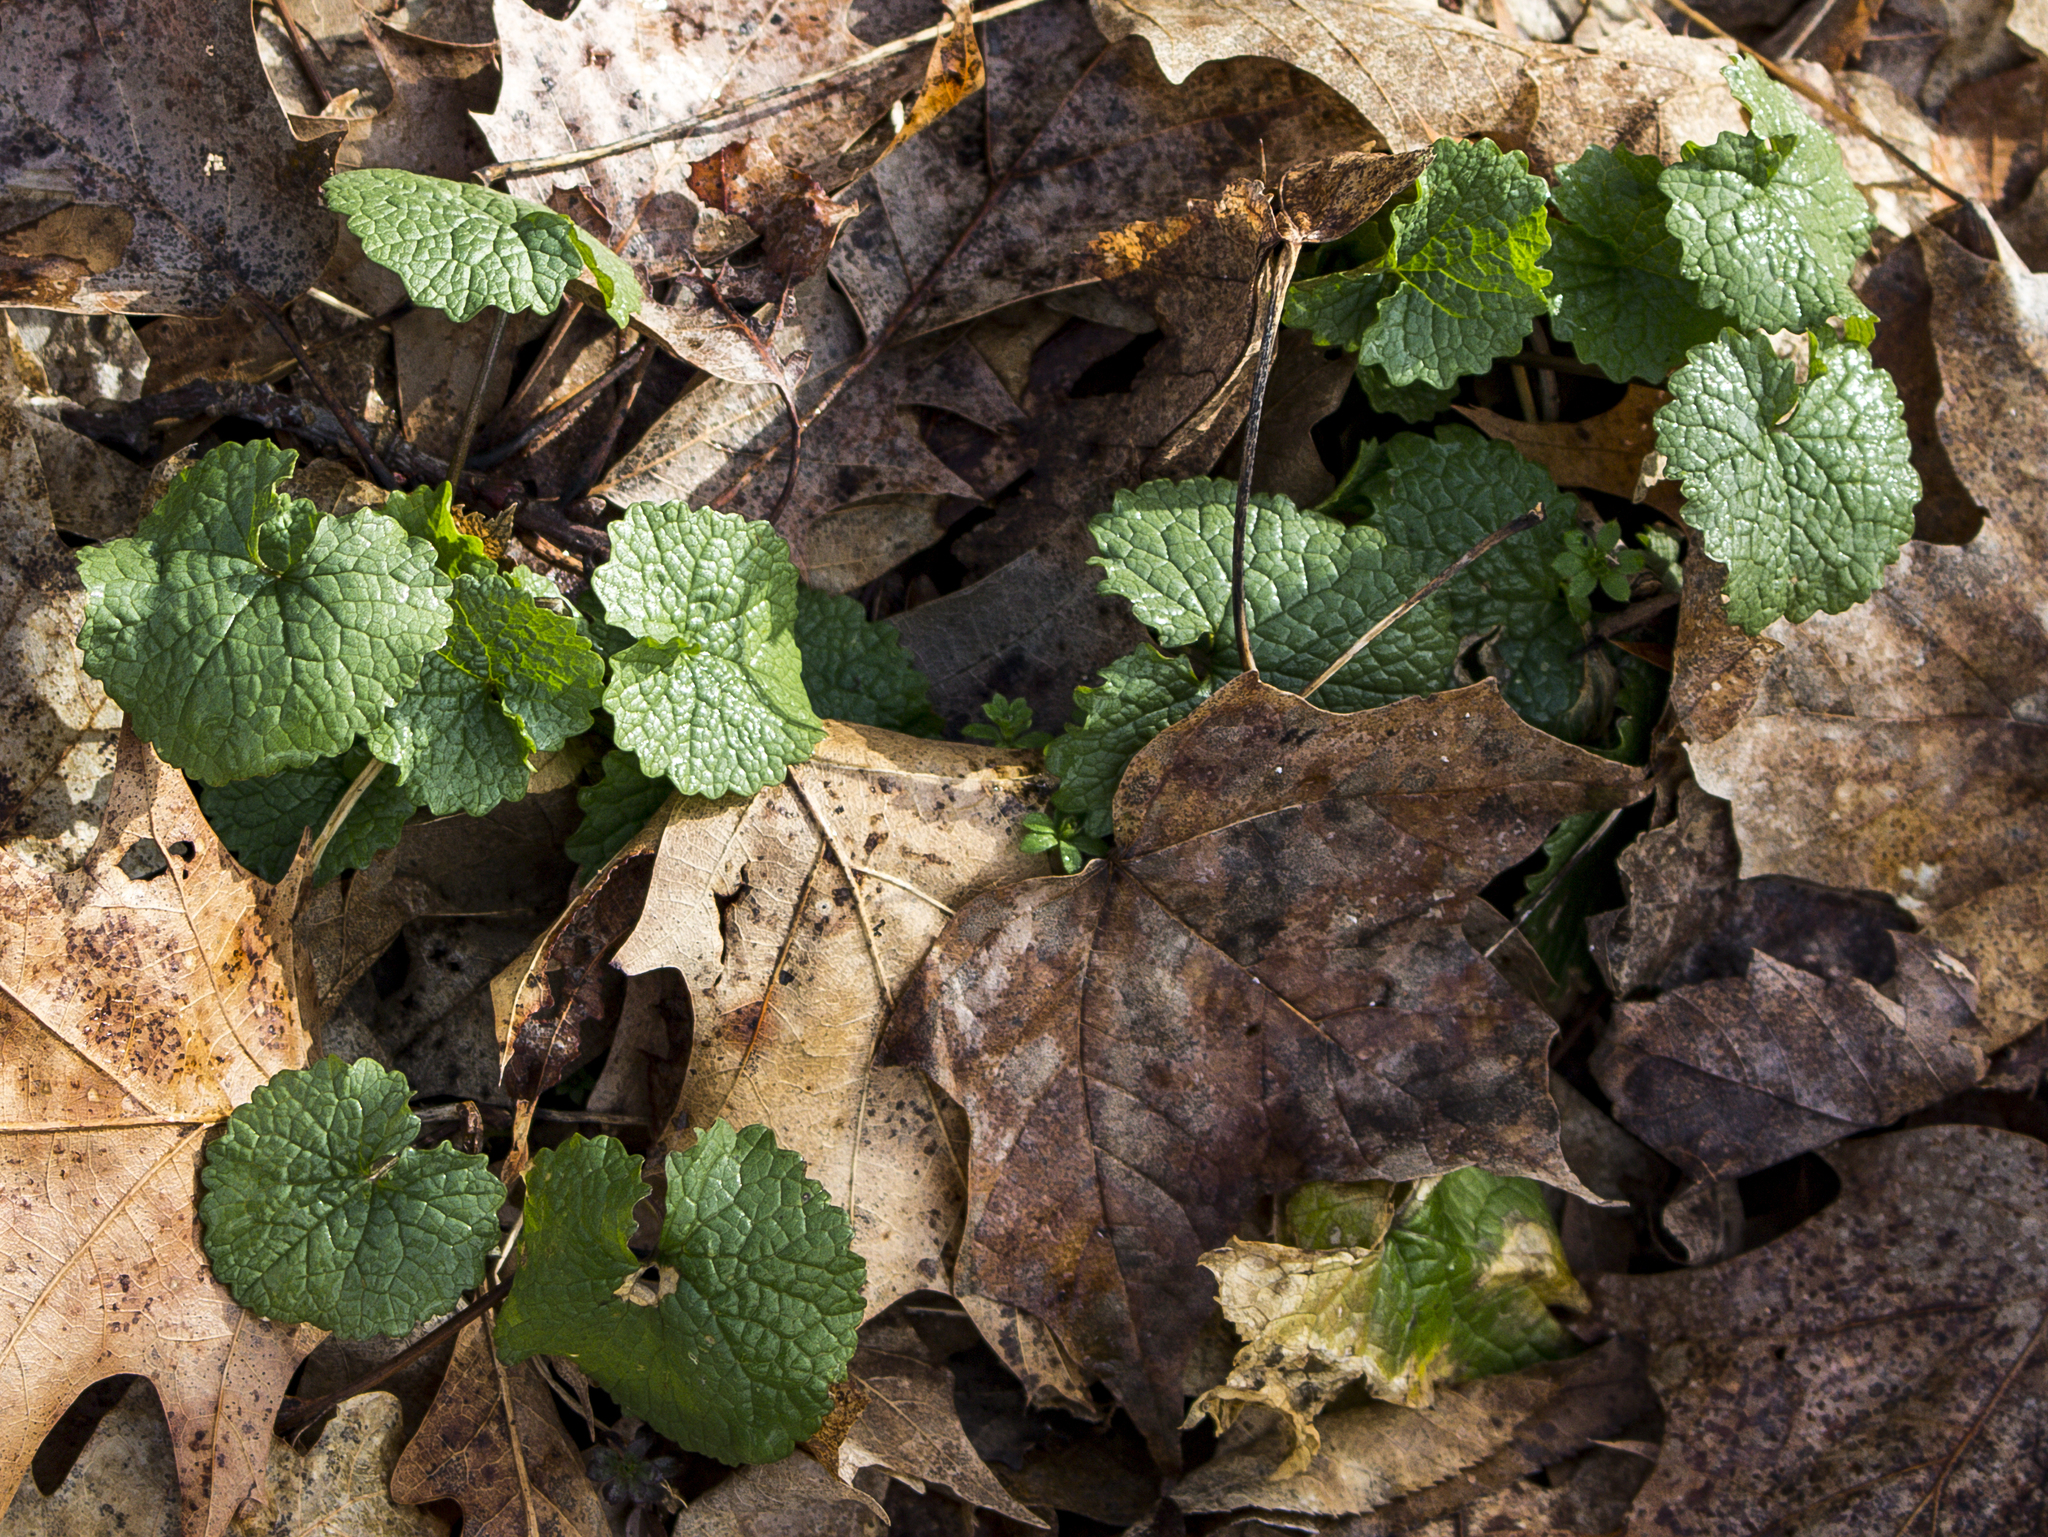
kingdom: Plantae
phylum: Tracheophyta
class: Magnoliopsida
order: Brassicales
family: Brassicaceae
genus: Alliaria
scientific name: Alliaria petiolata
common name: Garlic mustard
